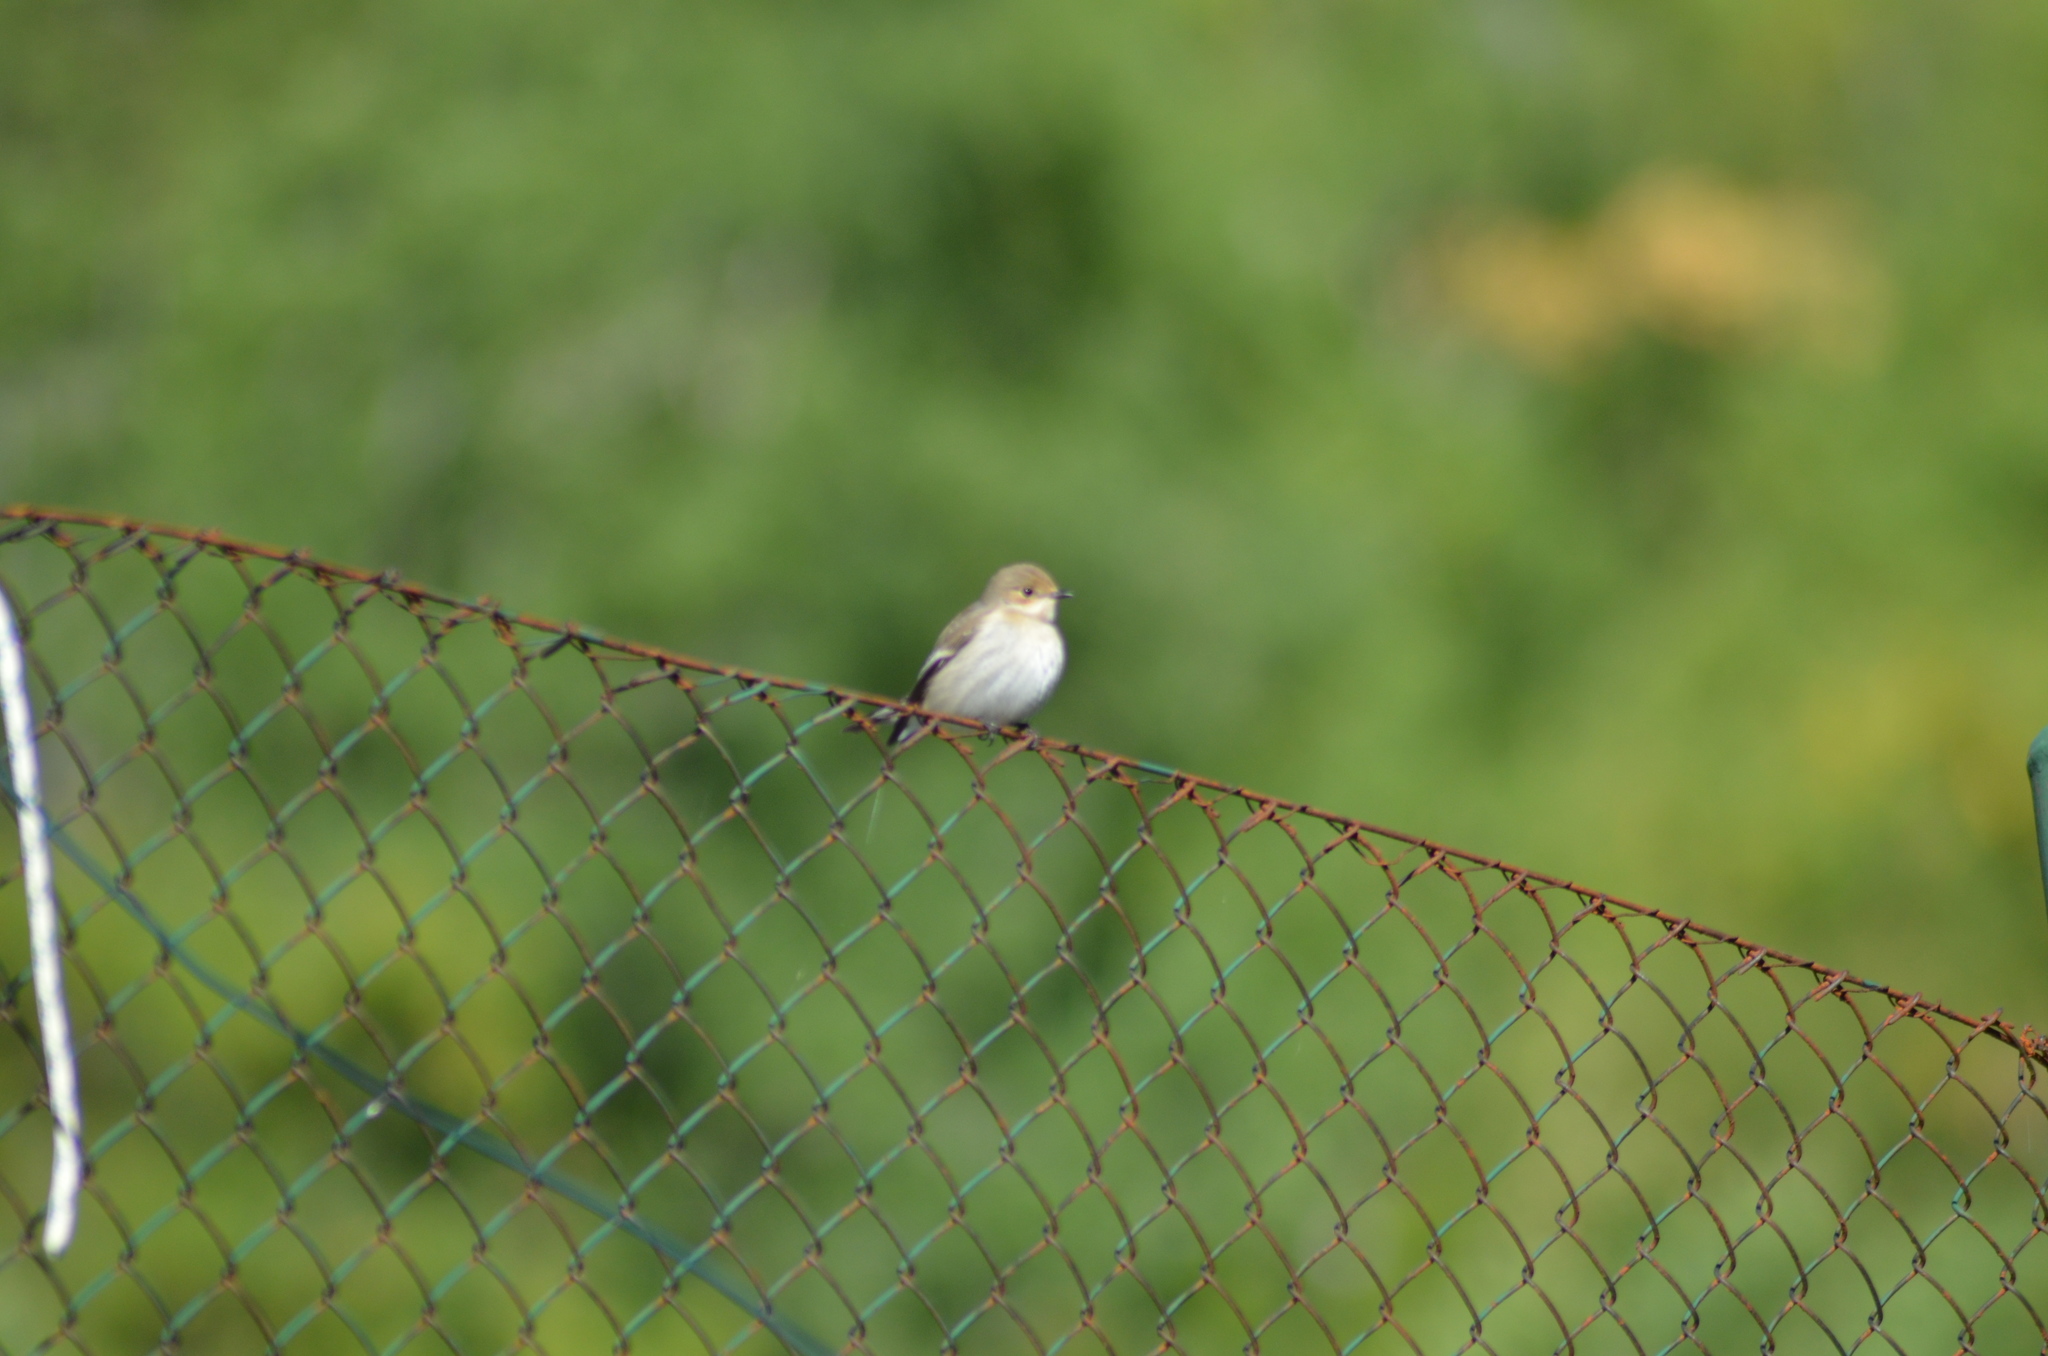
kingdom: Animalia
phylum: Chordata
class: Aves
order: Passeriformes
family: Muscicapidae
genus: Ficedula
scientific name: Ficedula hypoleuca
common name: European pied flycatcher
